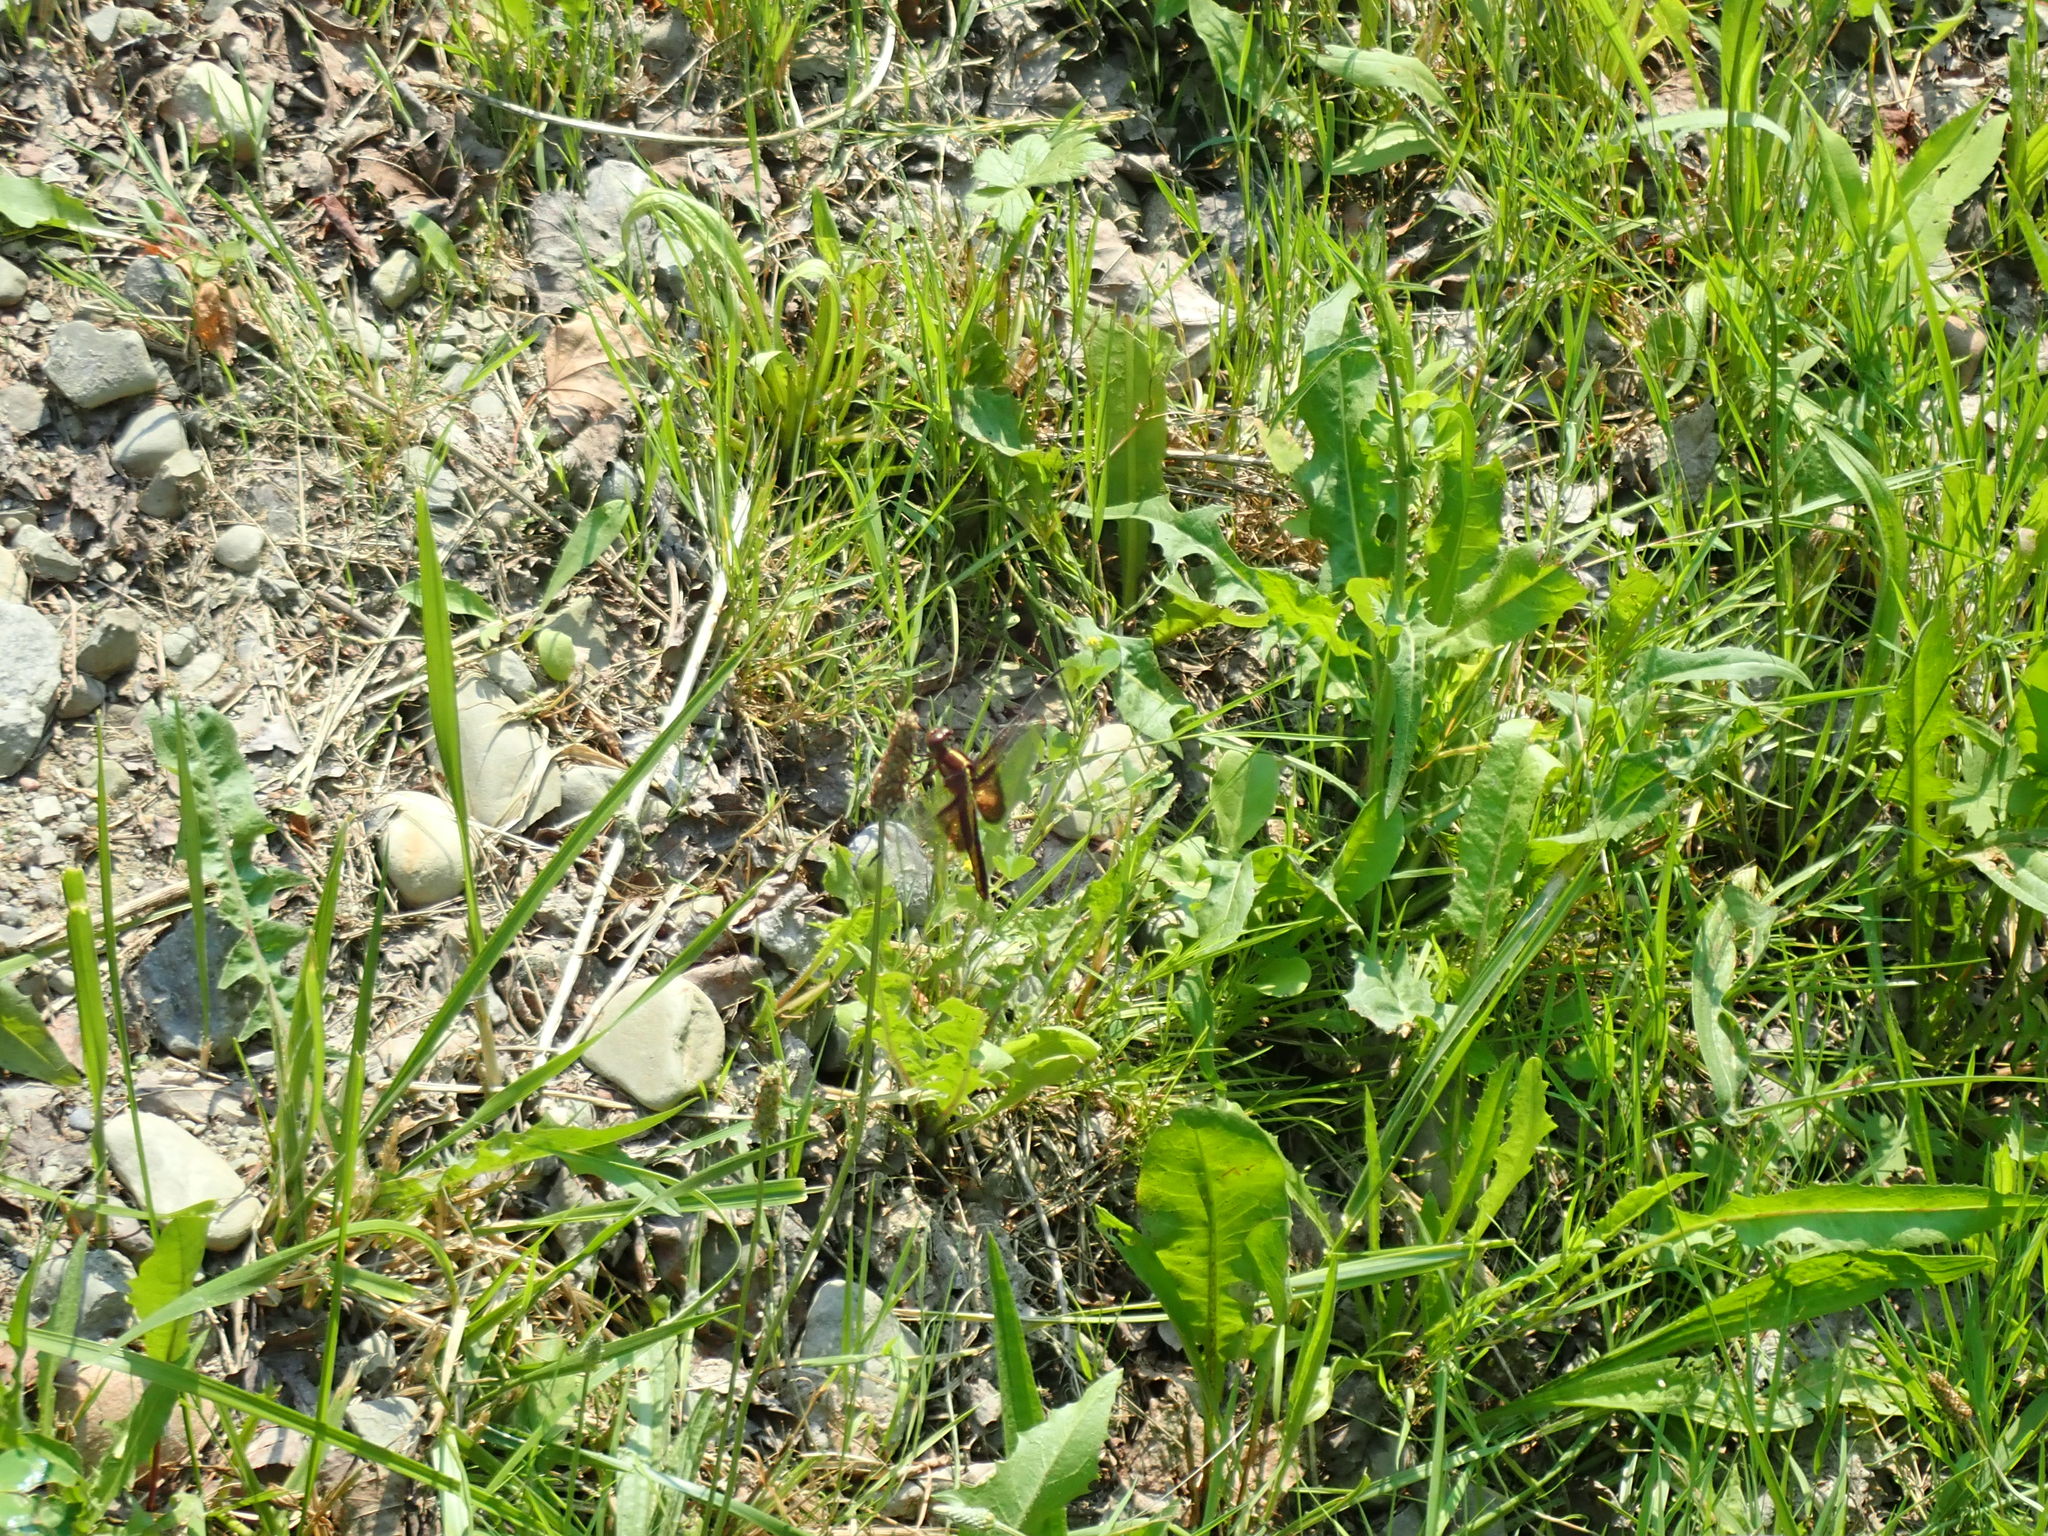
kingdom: Animalia
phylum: Arthropoda
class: Insecta
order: Odonata
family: Libellulidae
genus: Libellula
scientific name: Libellula luctuosa
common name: Widow skimmer
